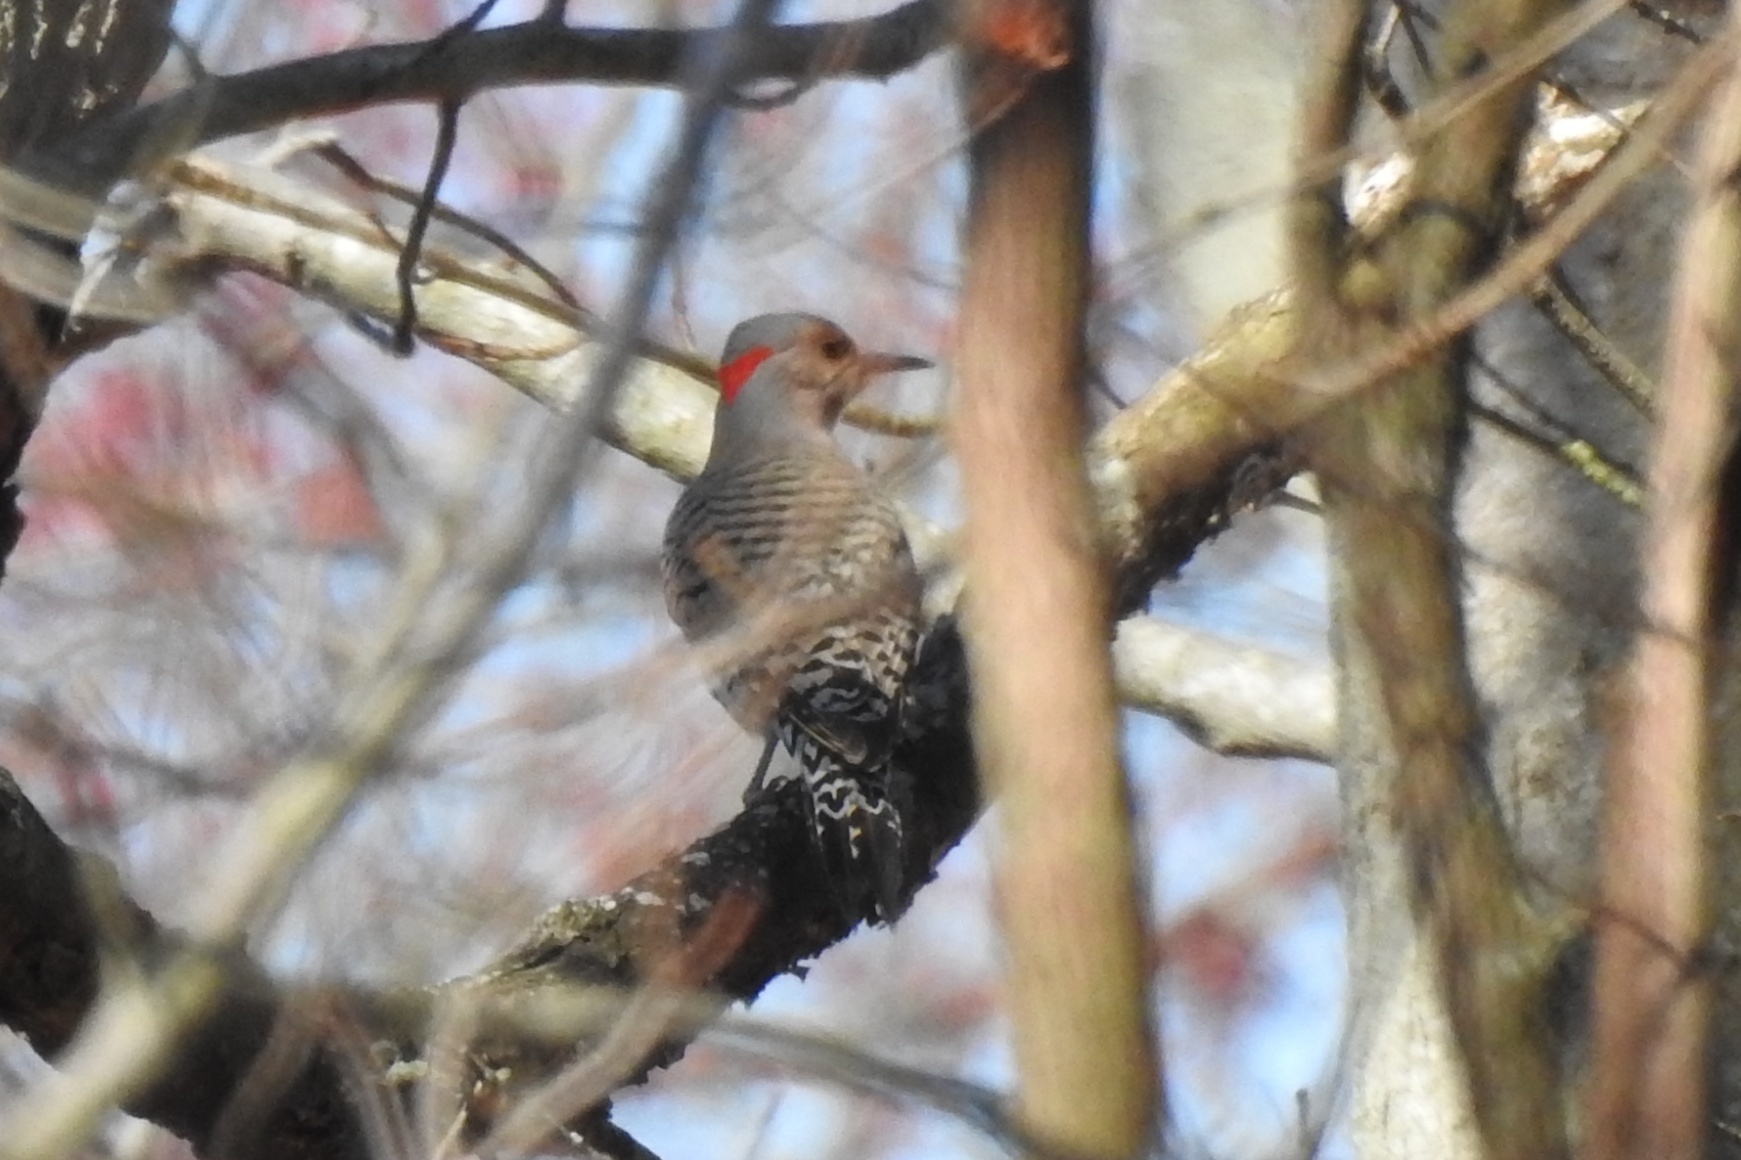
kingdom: Animalia
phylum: Chordata
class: Aves
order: Piciformes
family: Picidae
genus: Colaptes
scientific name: Colaptes auratus
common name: Northern flicker
